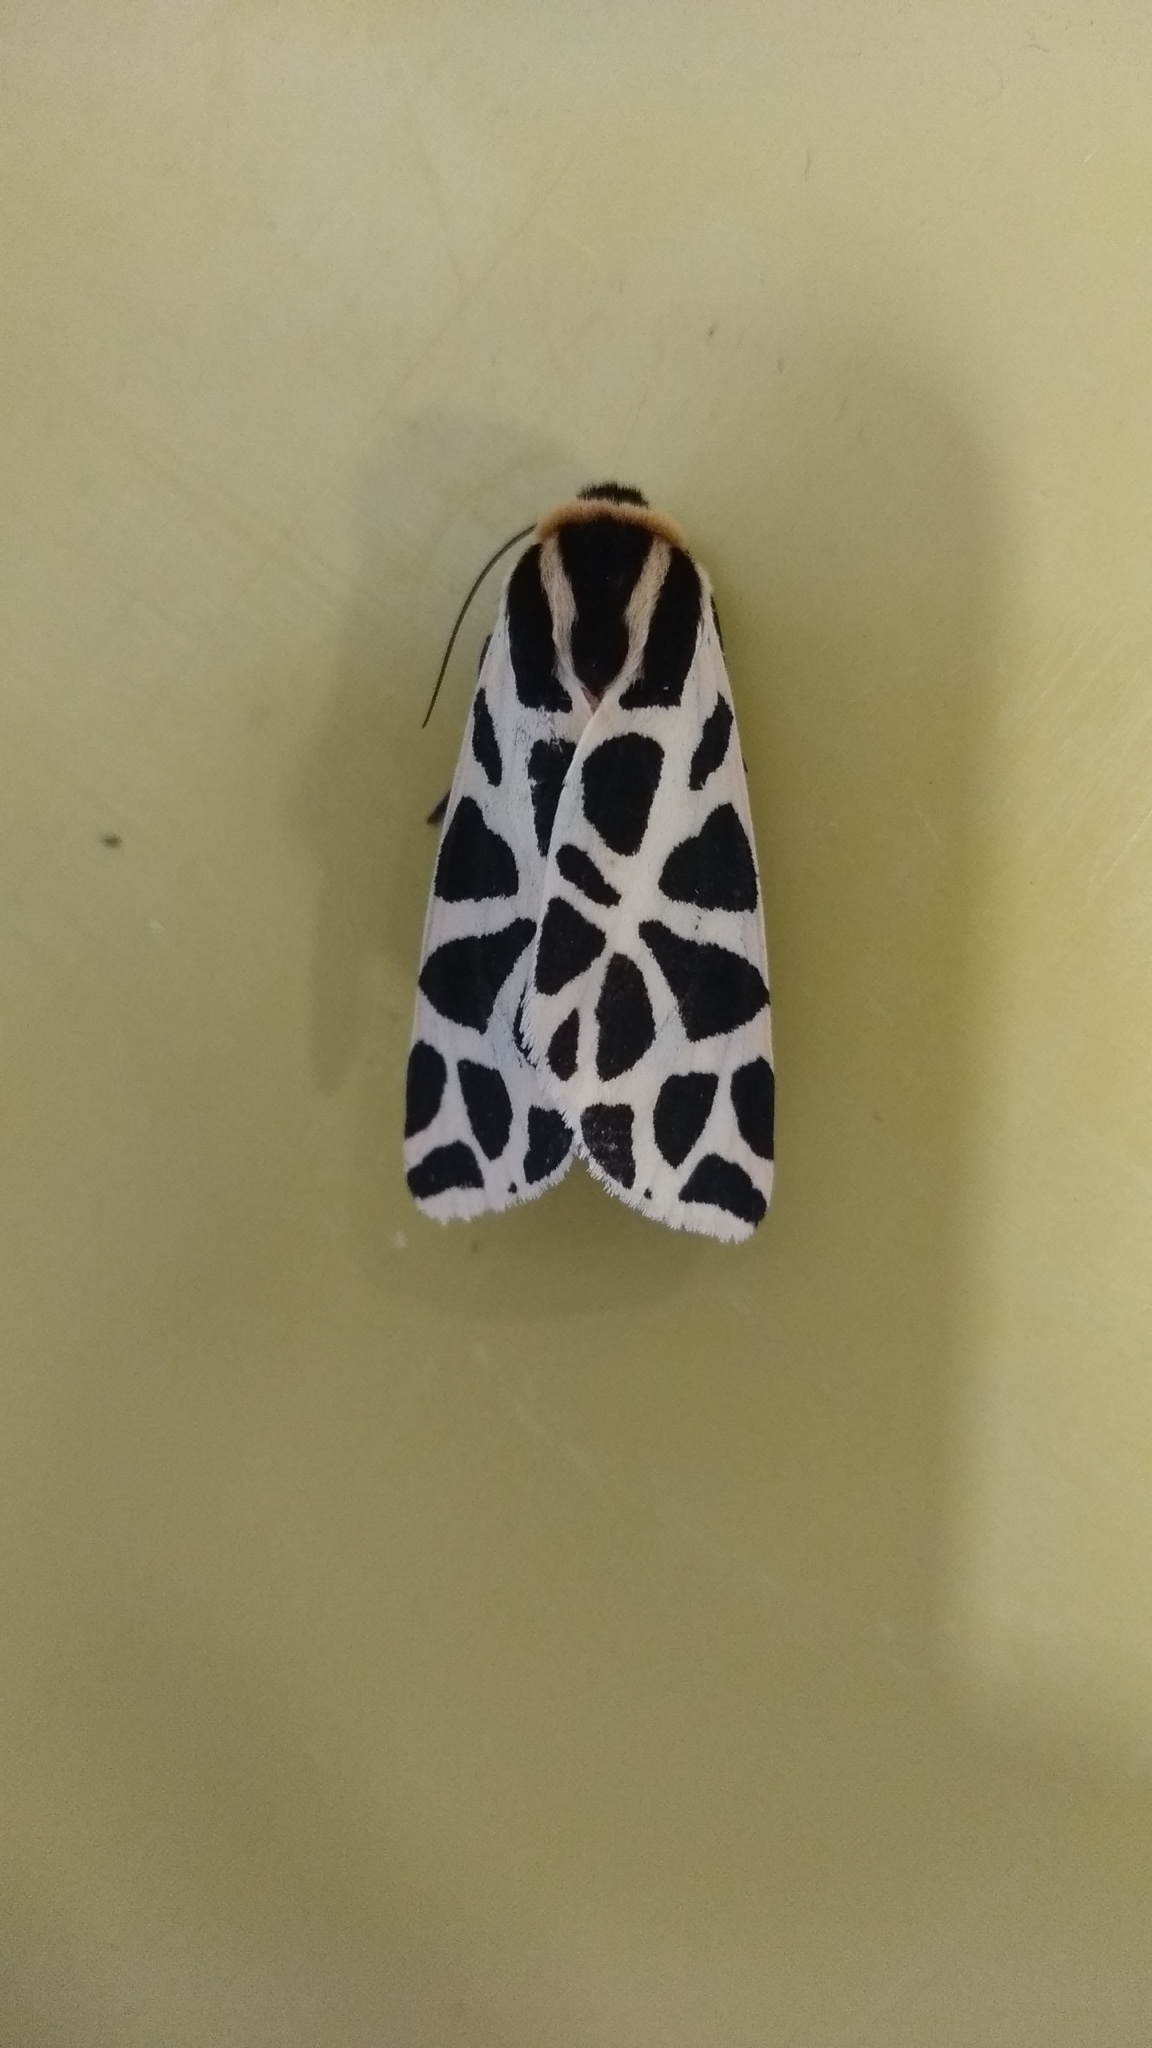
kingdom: Animalia
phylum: Arthropoda
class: Insecta
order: Lepidoptera
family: Erebidae
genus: Cymbalophora
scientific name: Cymbalophora pudica
